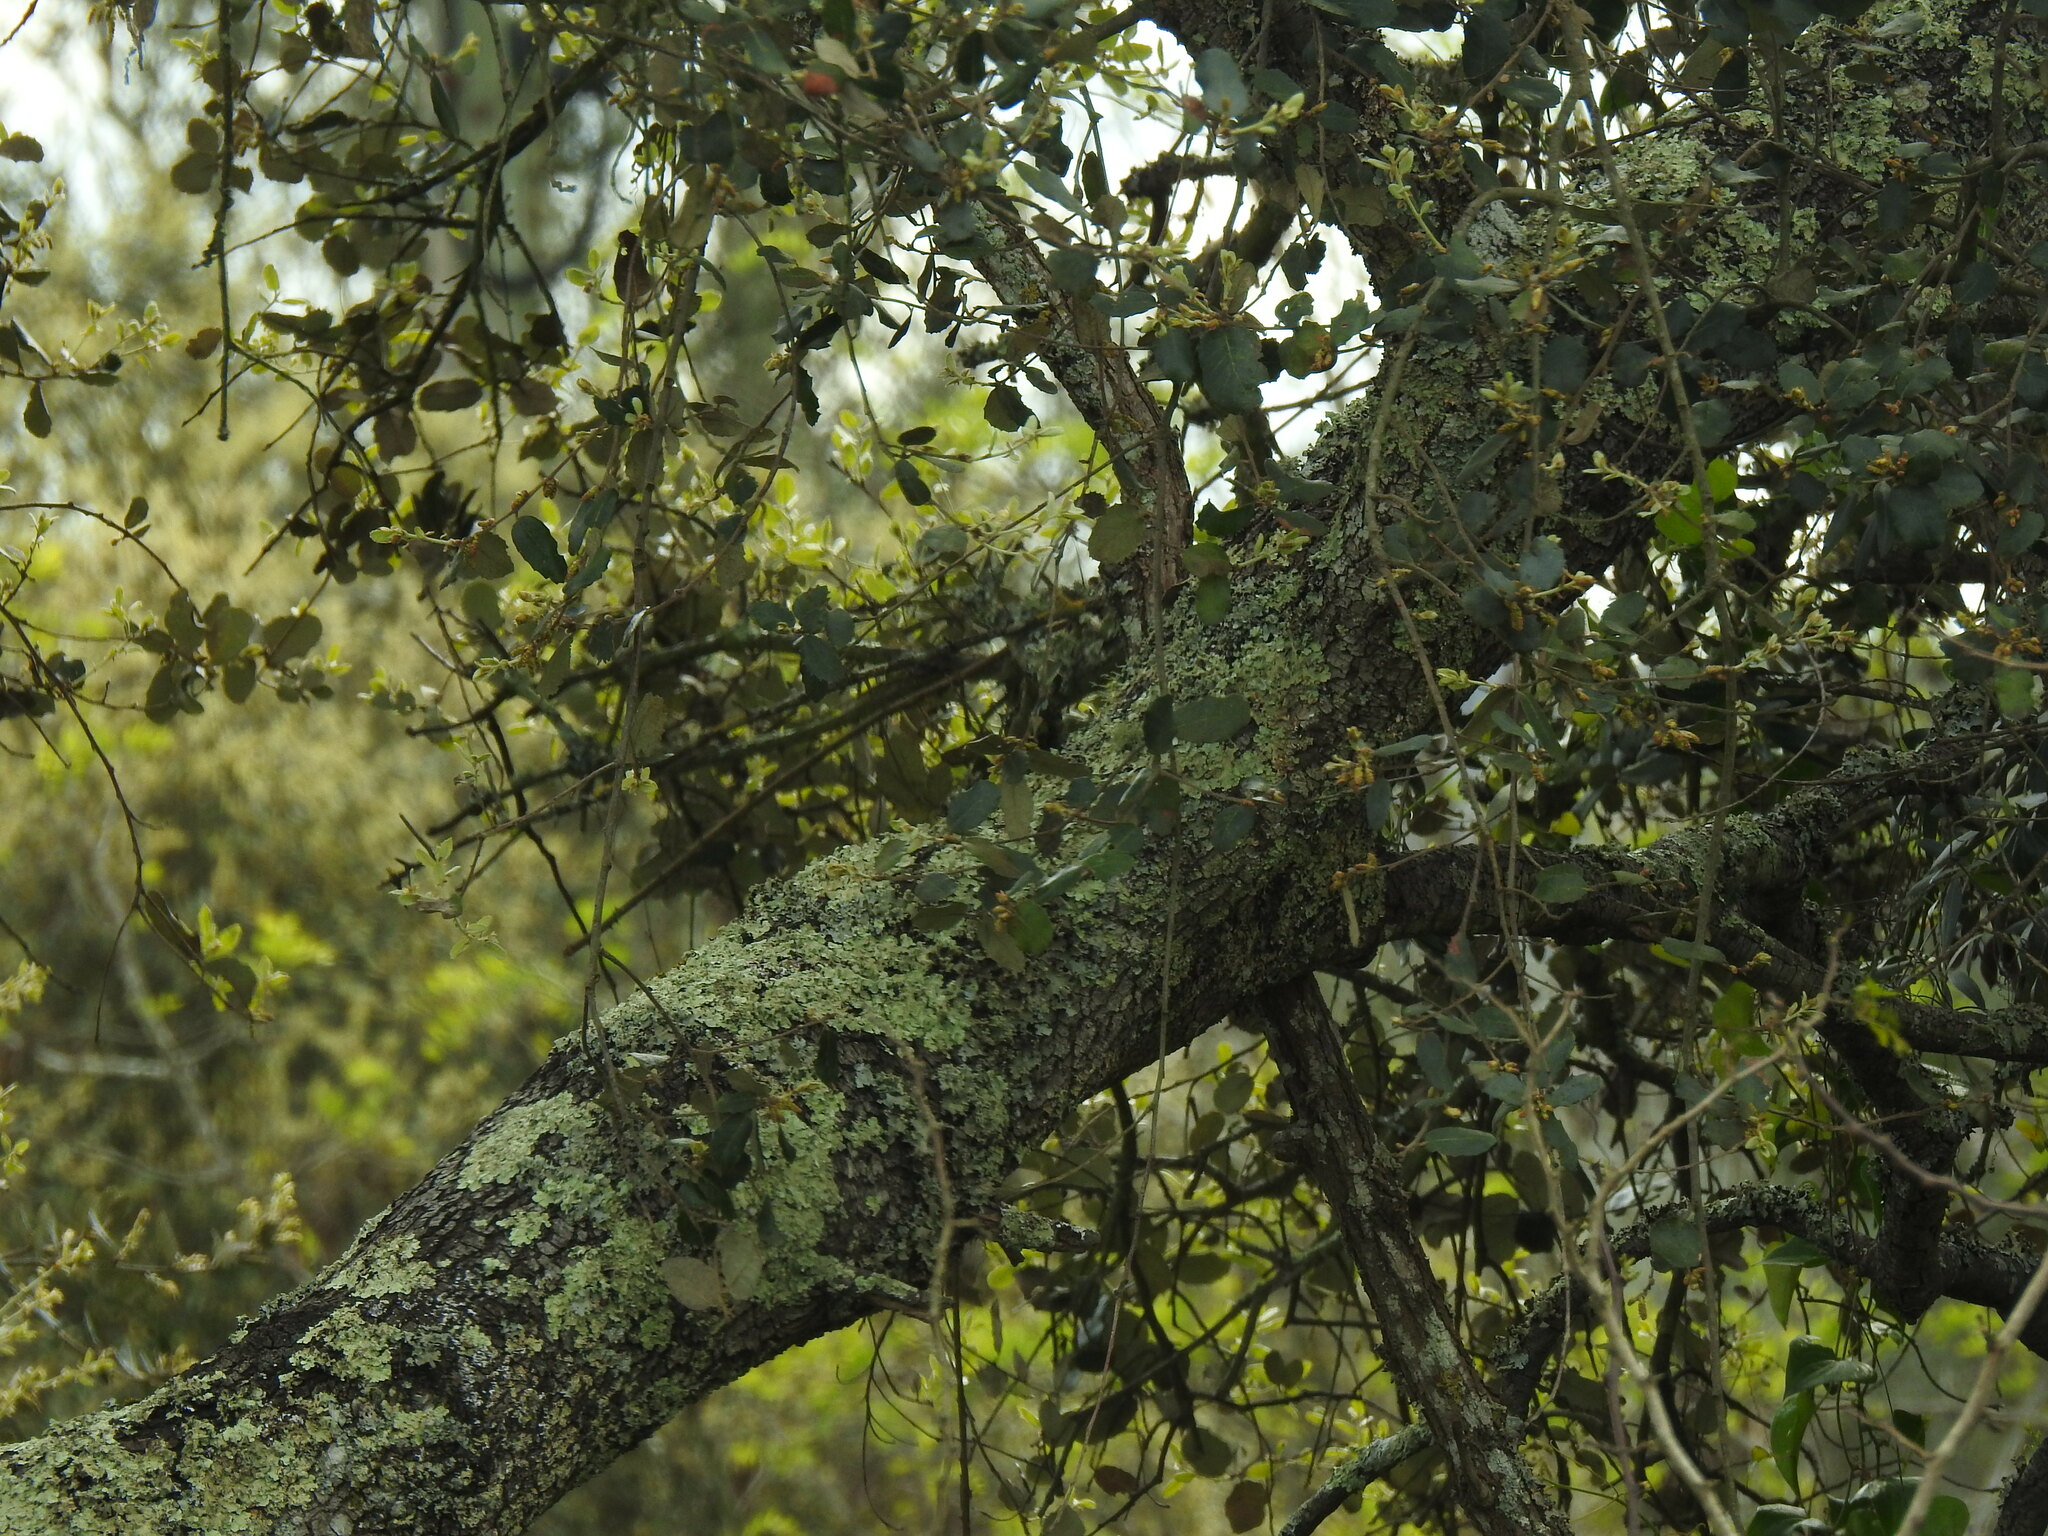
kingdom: Plantae
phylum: Tracheophyta
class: Magnoliopsida
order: Fagales
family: Fagaceae
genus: Quercus
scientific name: Quercus rotundifolia
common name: Holm oak
